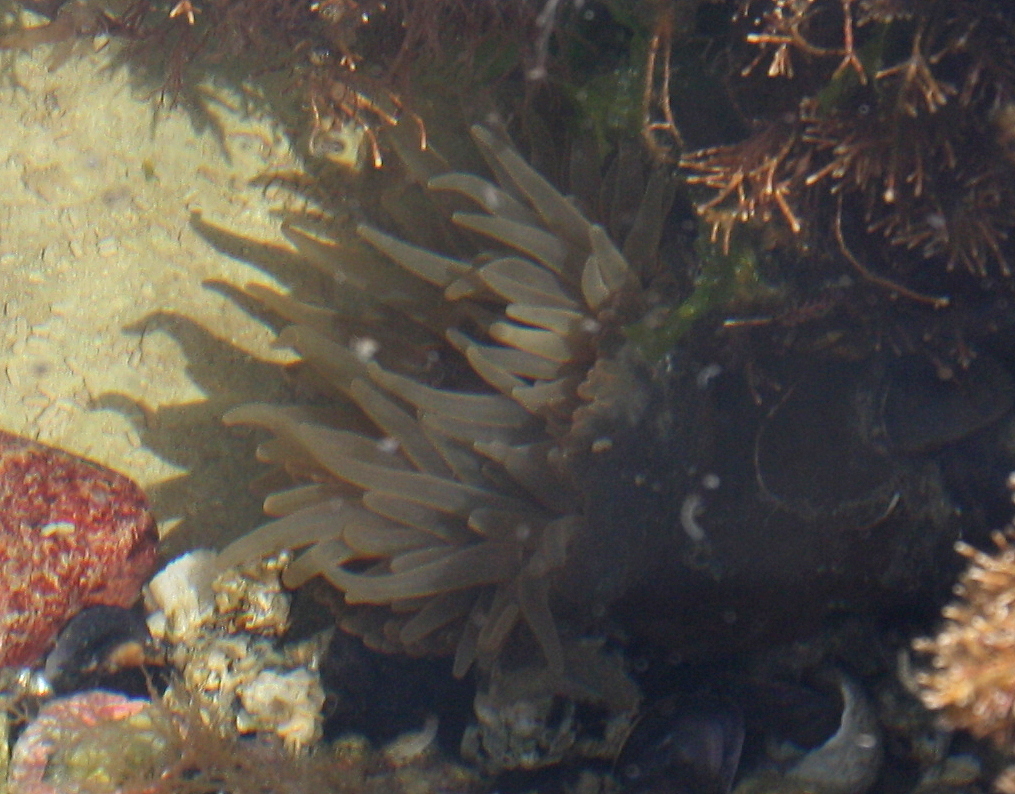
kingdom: Animalia
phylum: Cnidaria
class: Anthozoa
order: Actiniaria
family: Actiniidae
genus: Parabunodactis
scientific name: Parabunodactis imperfecta
